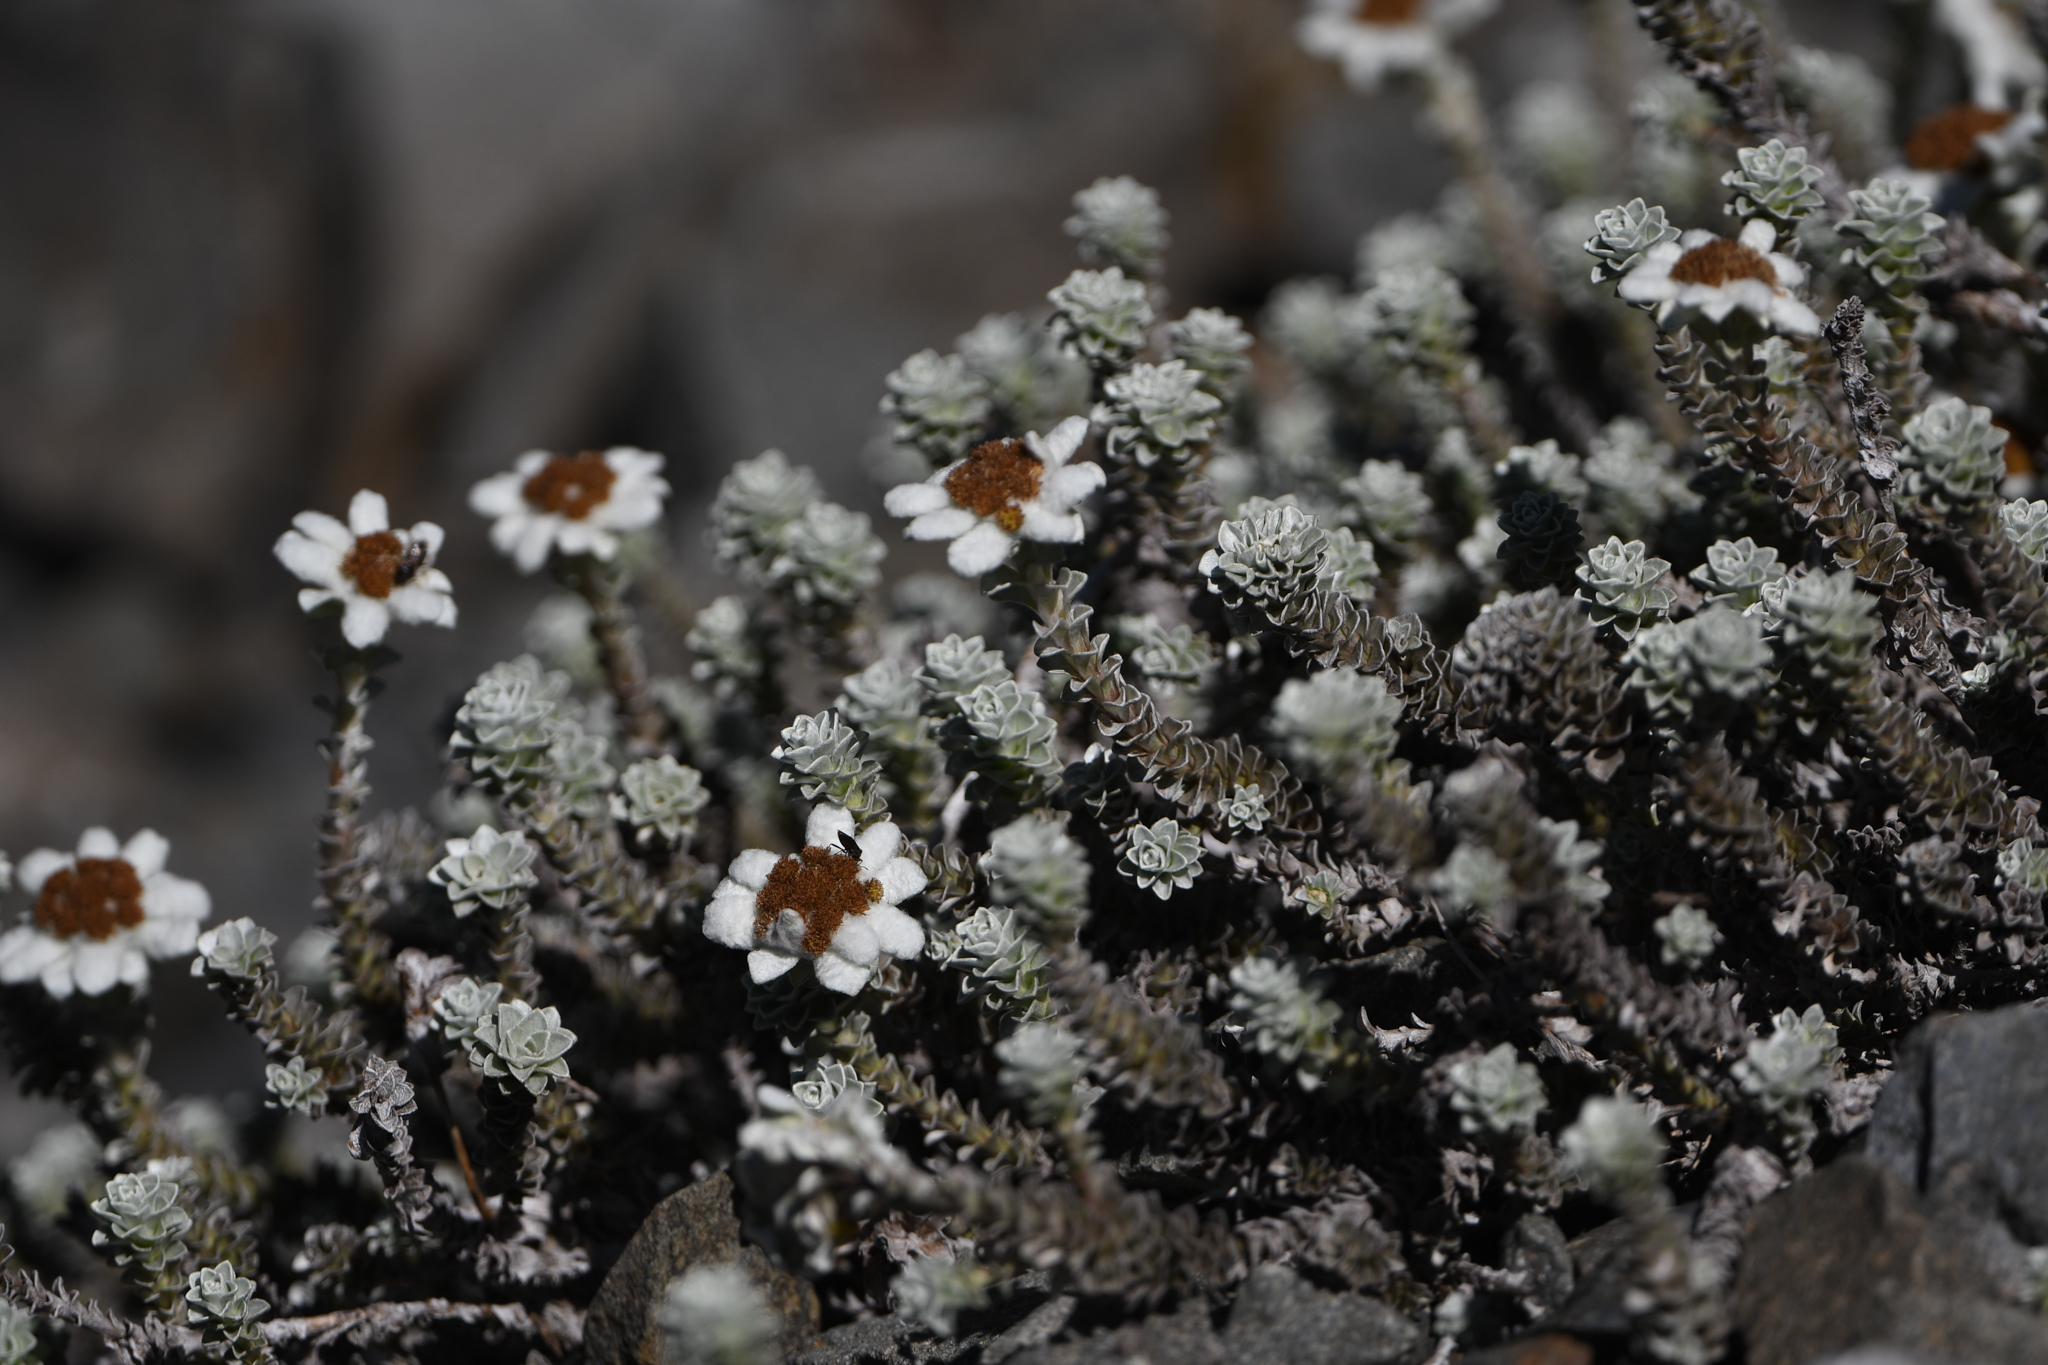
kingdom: Plantae
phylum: Tracheophyta
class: Magnoliopsida
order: Asterales
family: Asteraceae
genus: Leucogenes
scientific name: Leucogenes grandiceps
